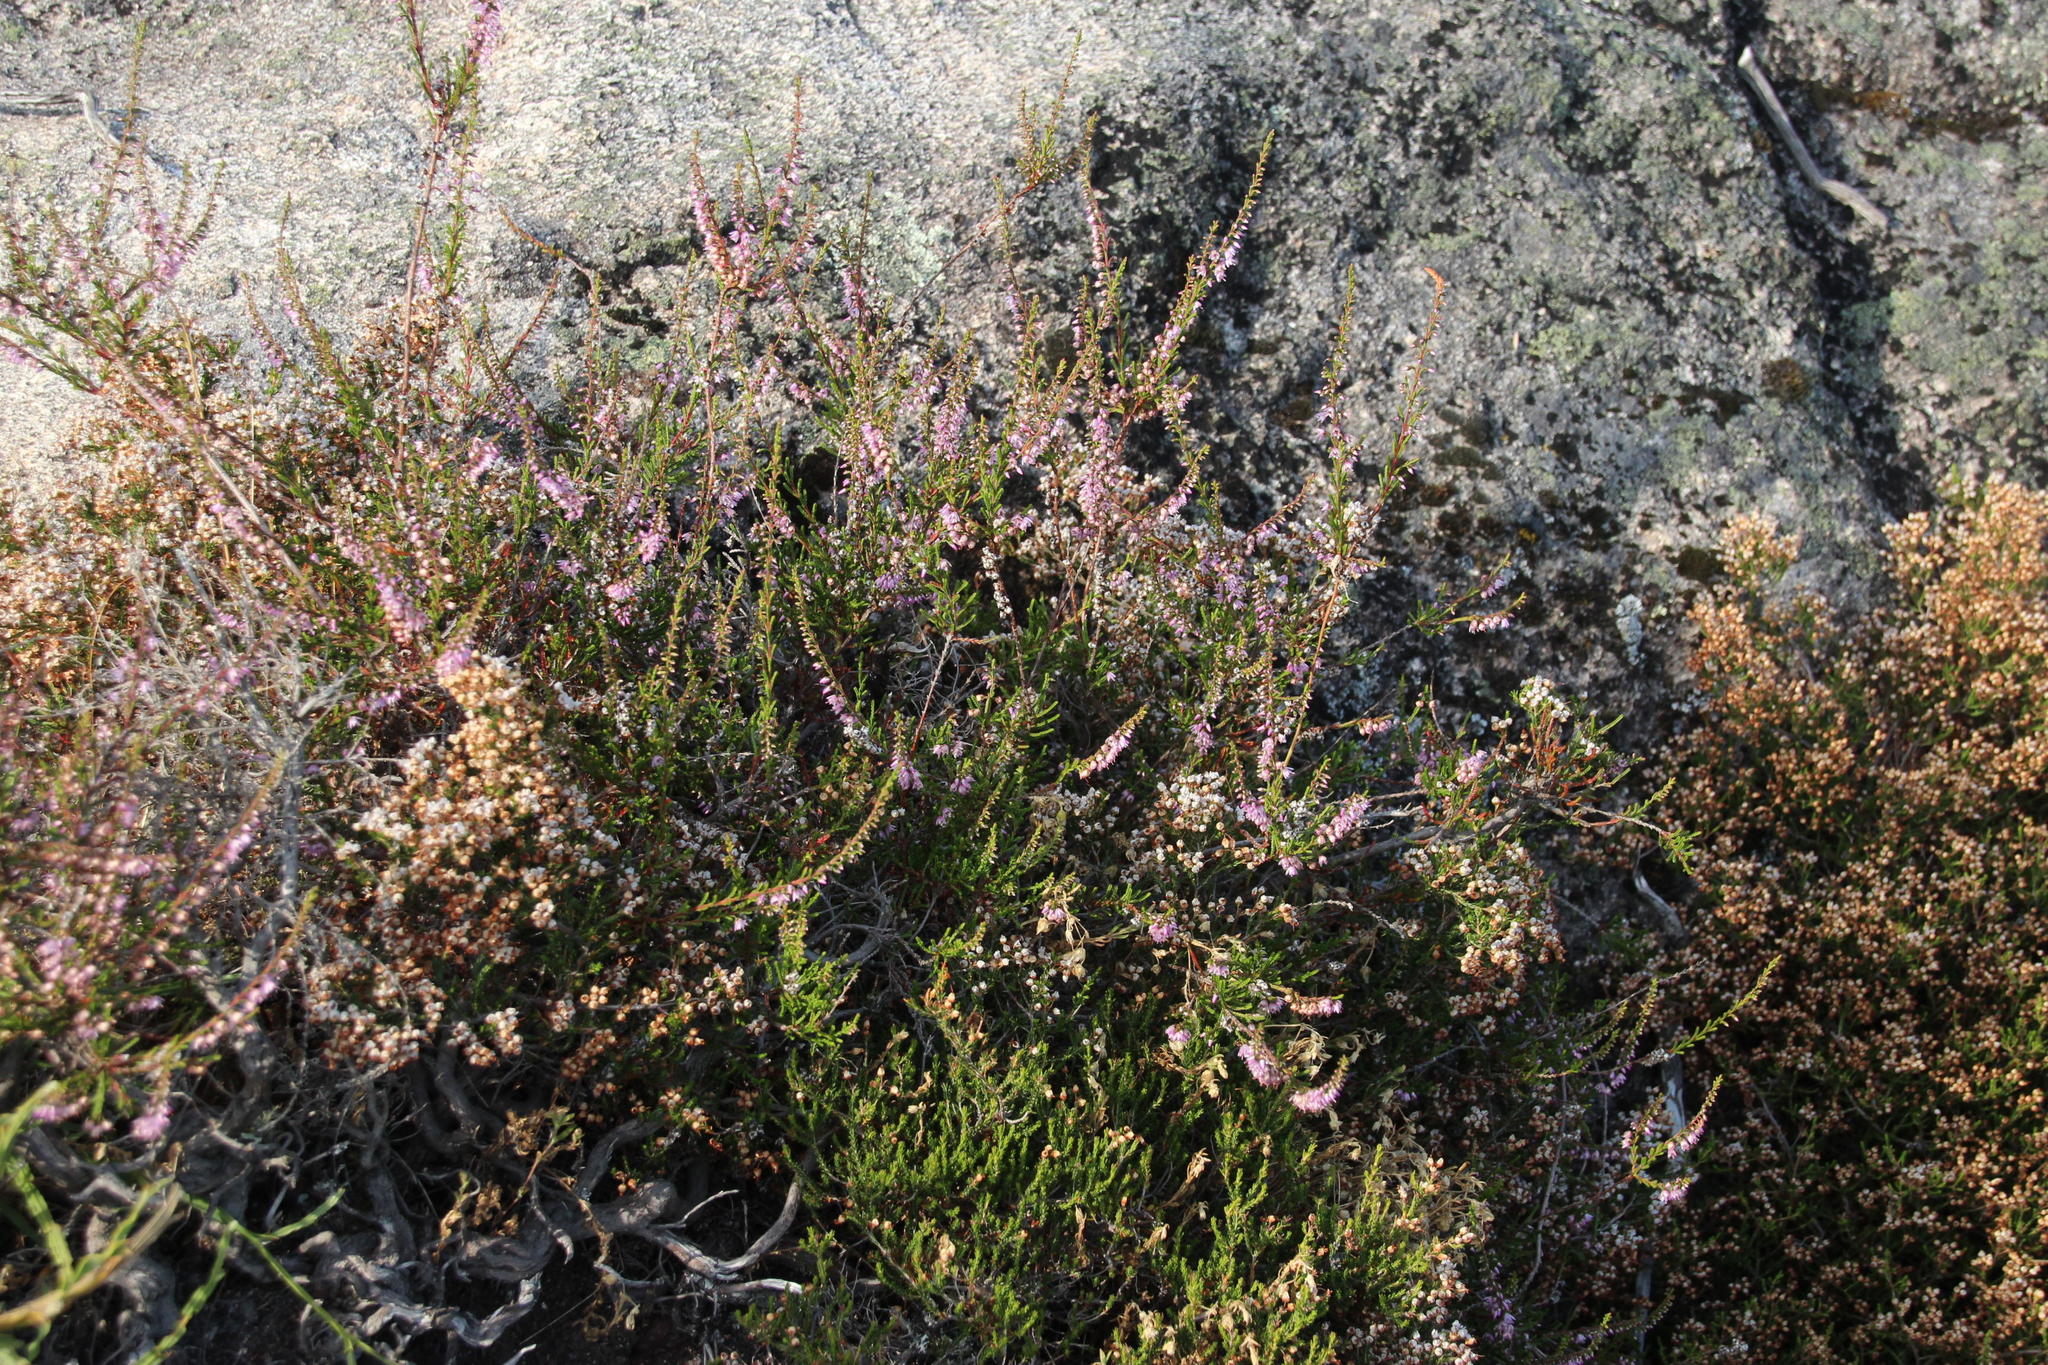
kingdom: Plantae
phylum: Tracheophyta
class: Magnoliopsida
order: Ericales
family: Ericaceae
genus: Calluna
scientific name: Calluna vulgaris
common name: Heather
